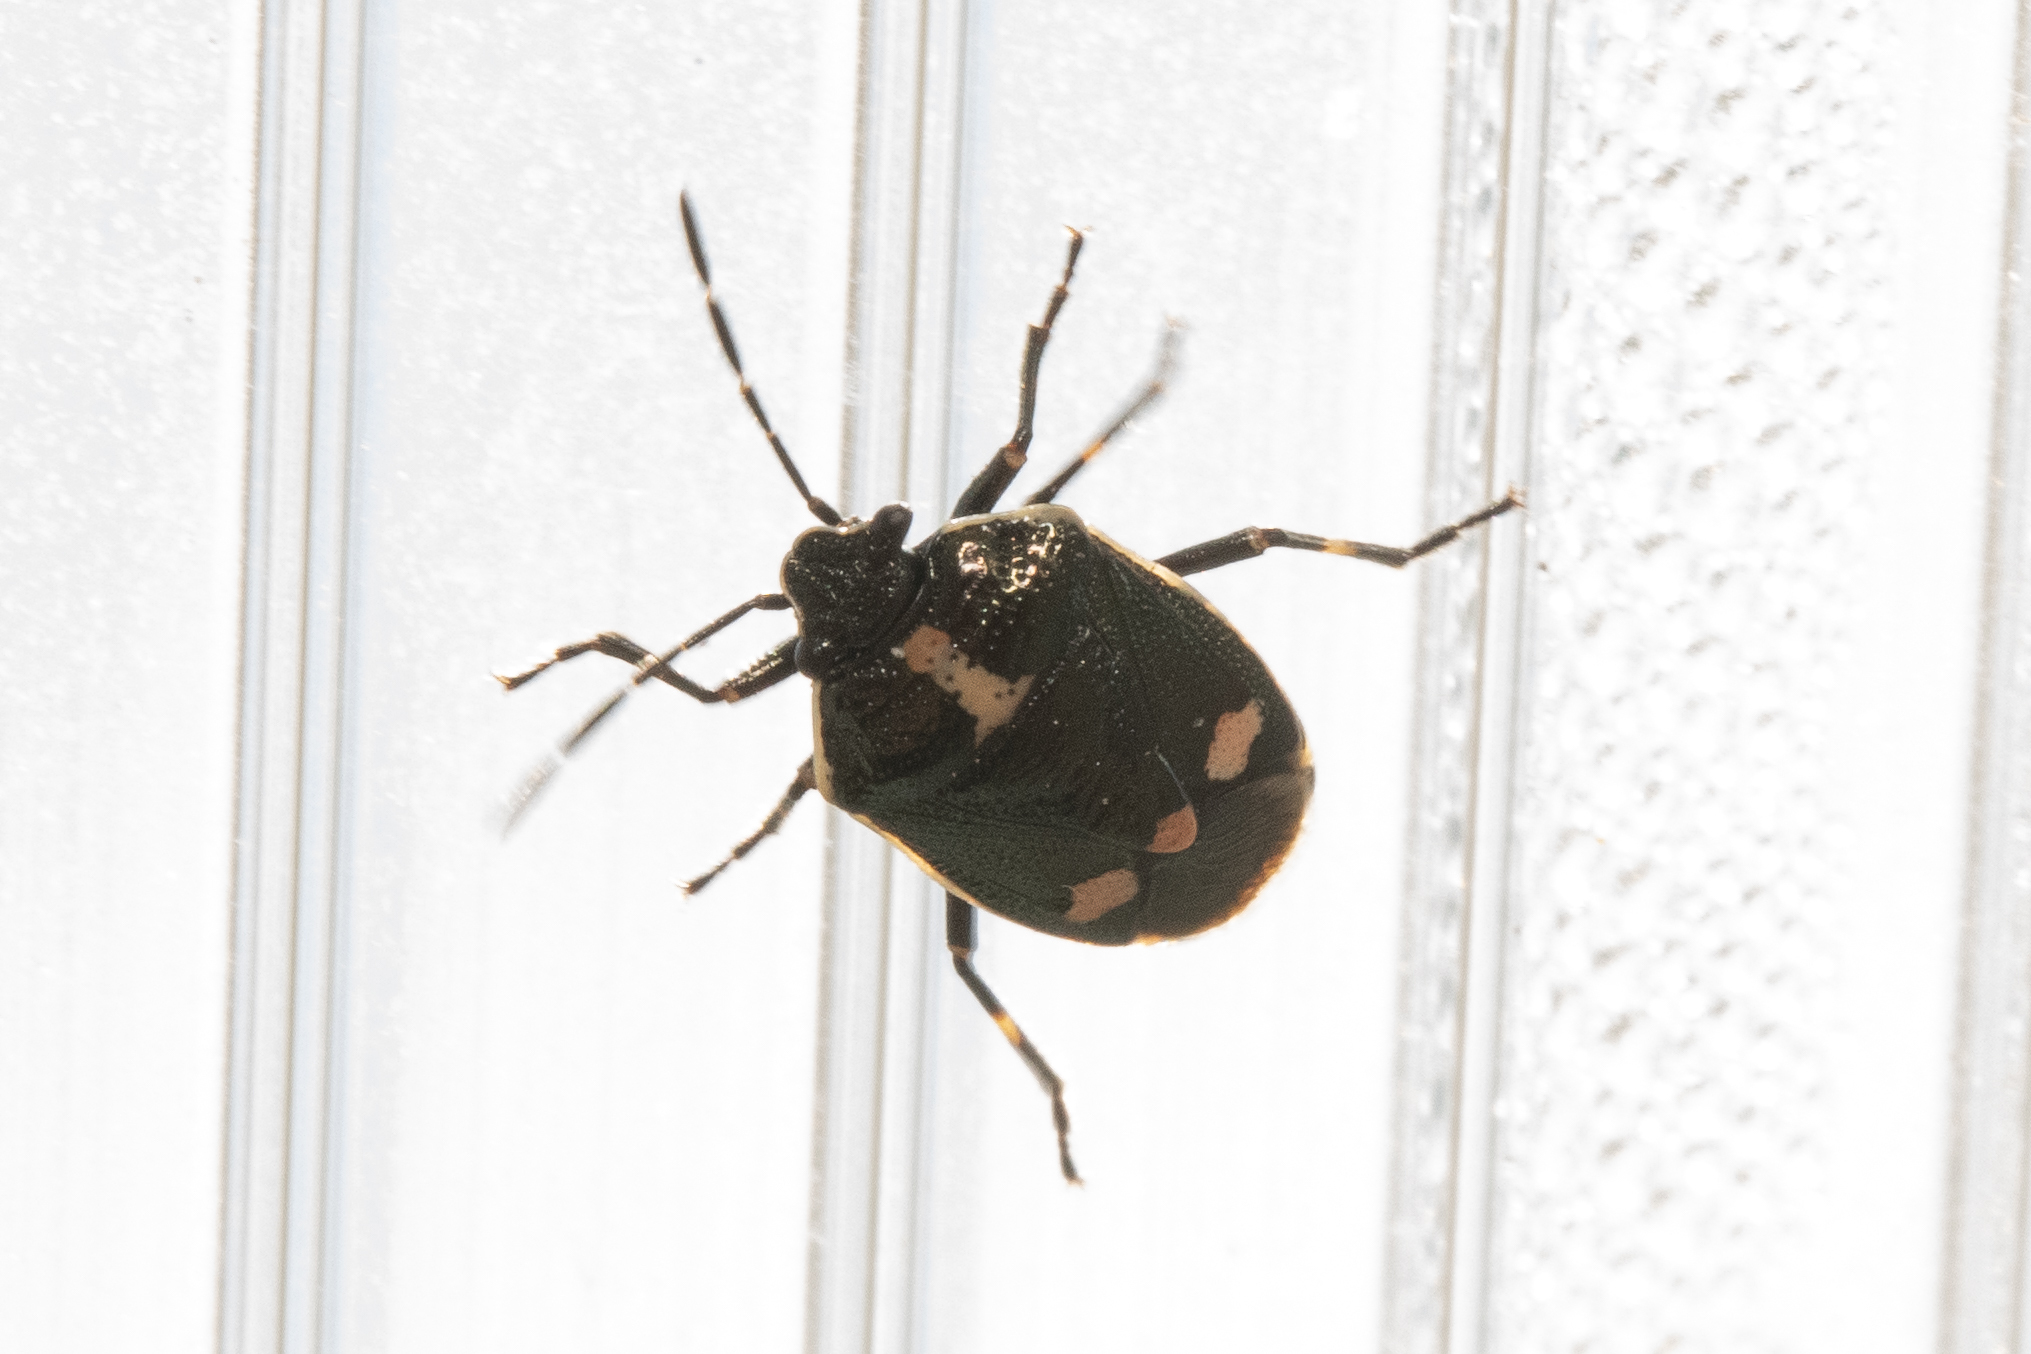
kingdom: Animalia
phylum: Arthropoda
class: Insecta
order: Hemiptera
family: Pentatomidae
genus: Eurydema
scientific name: Eurydema oleracea
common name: Cabbage bug
